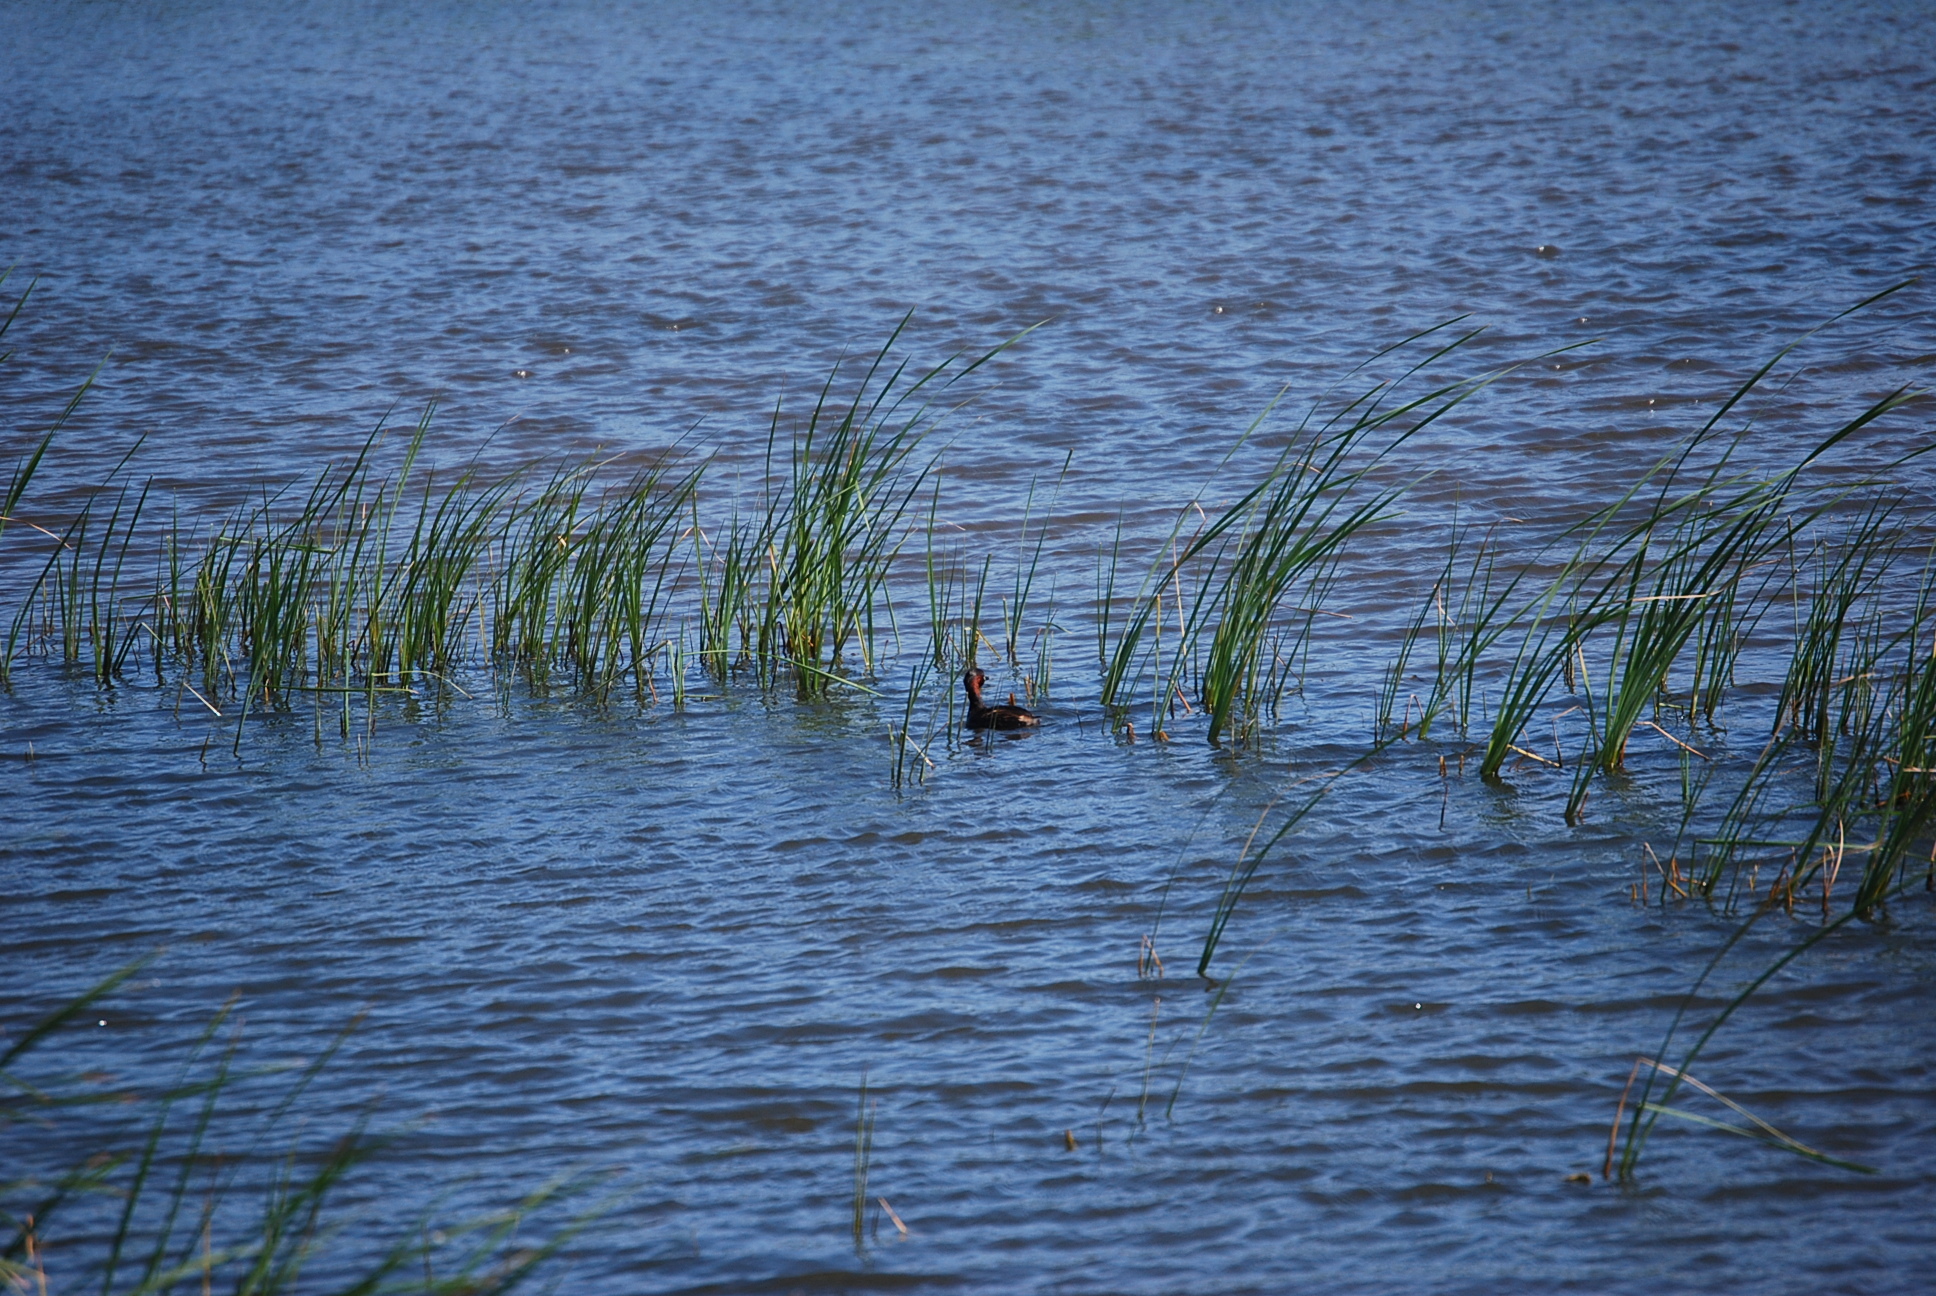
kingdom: Animalia
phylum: Chordata
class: Aves
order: Podicipediformes
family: Podicipedidae
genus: Tachybaptus
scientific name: Tachybaptus ruficollis
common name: Little grebe
